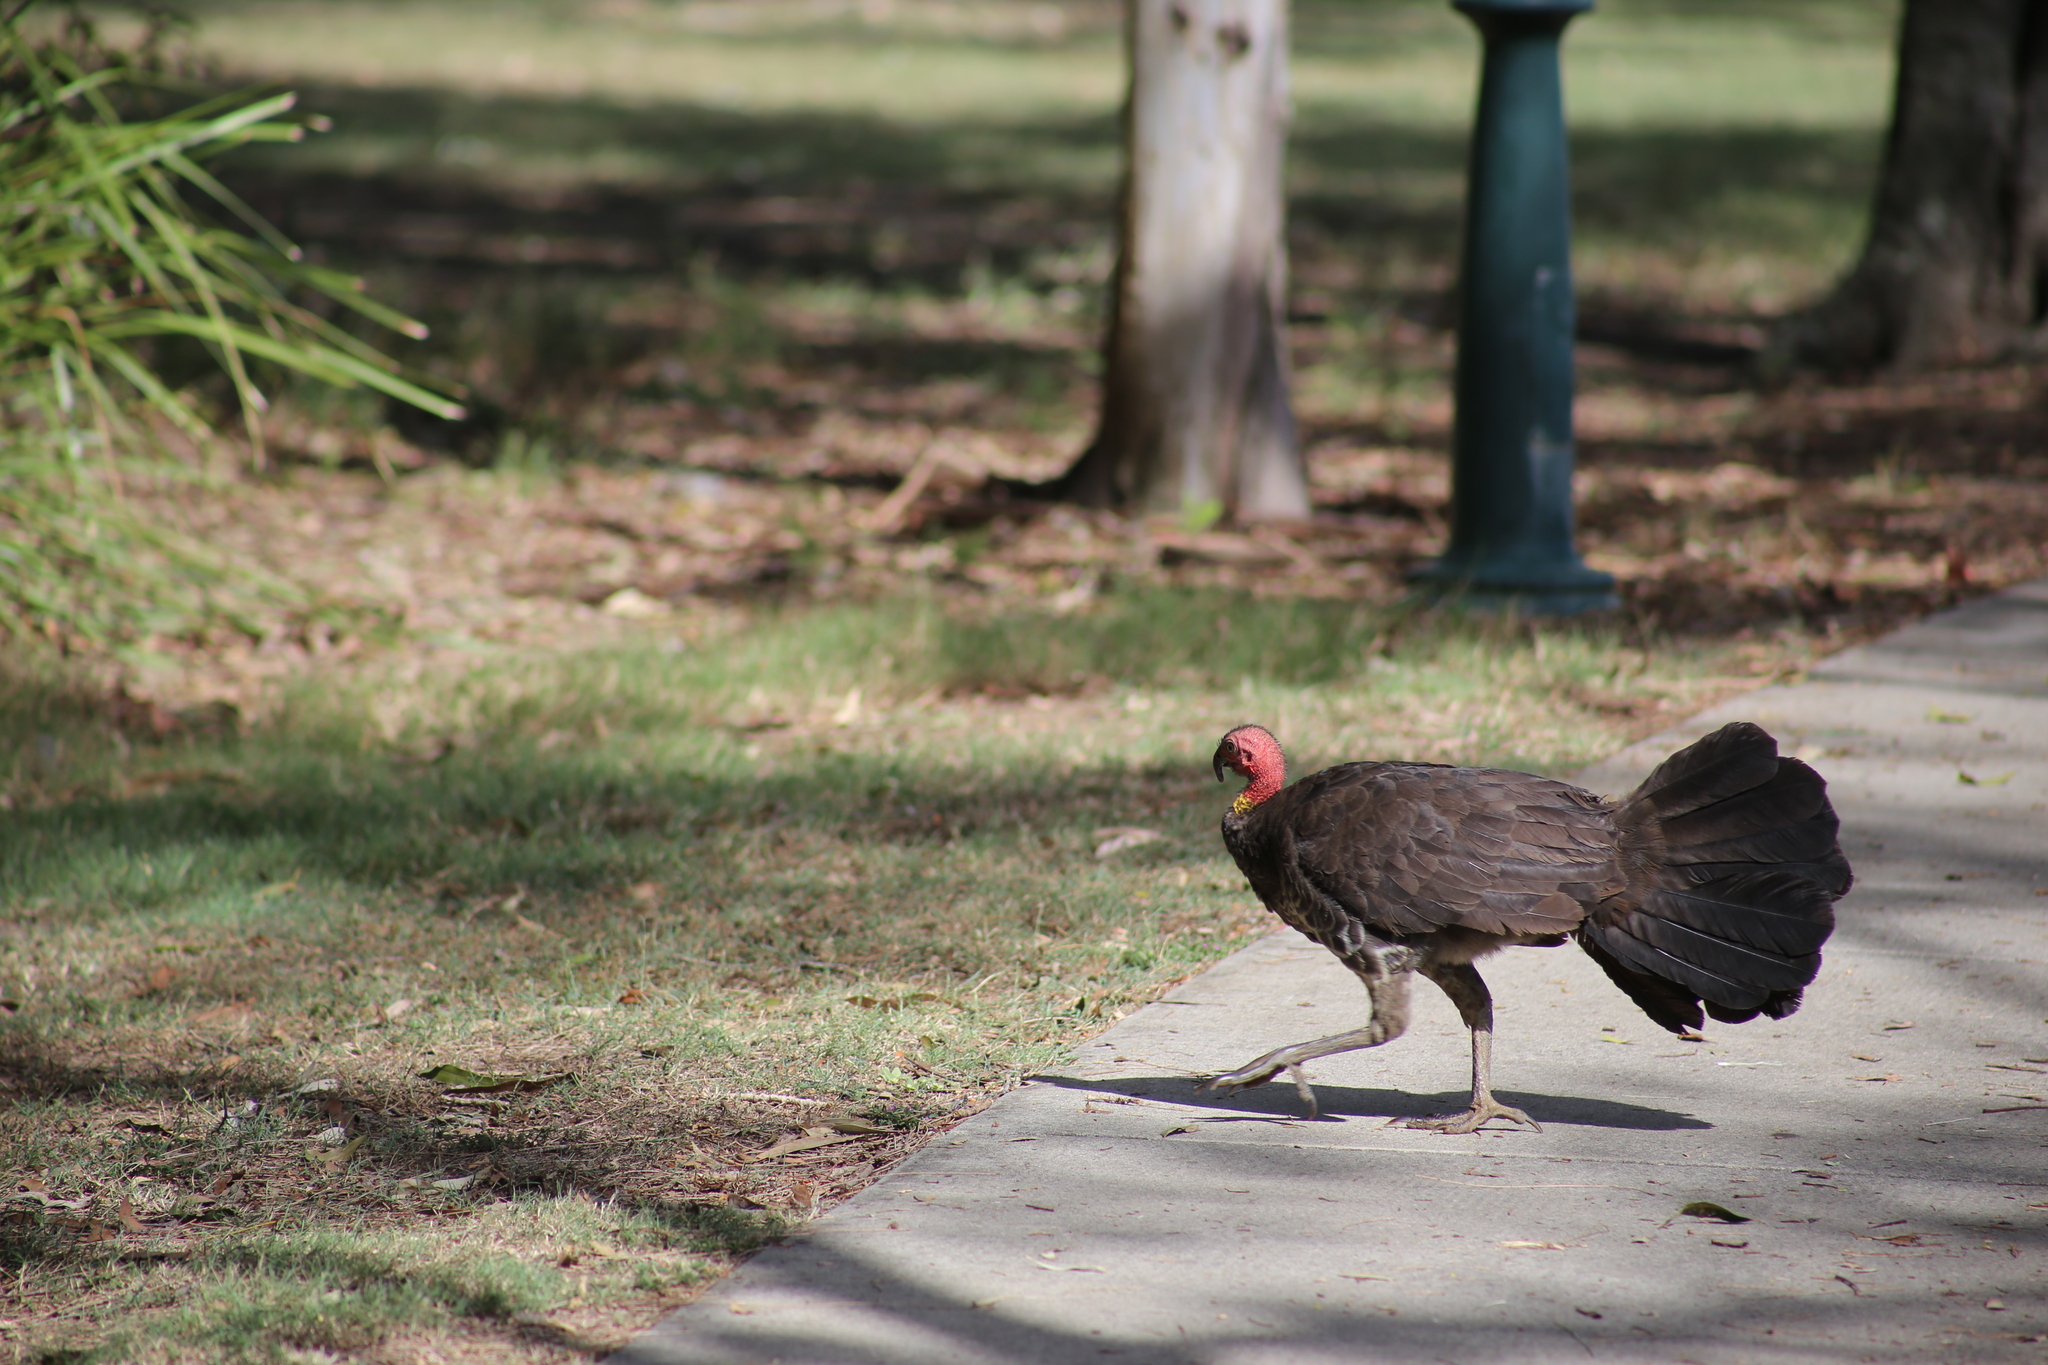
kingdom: Animalia
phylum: Chordata
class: Aves
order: Galliformes
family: Megapodiidae
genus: Alectura
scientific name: Alectura lathami
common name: Australian brushturkey
